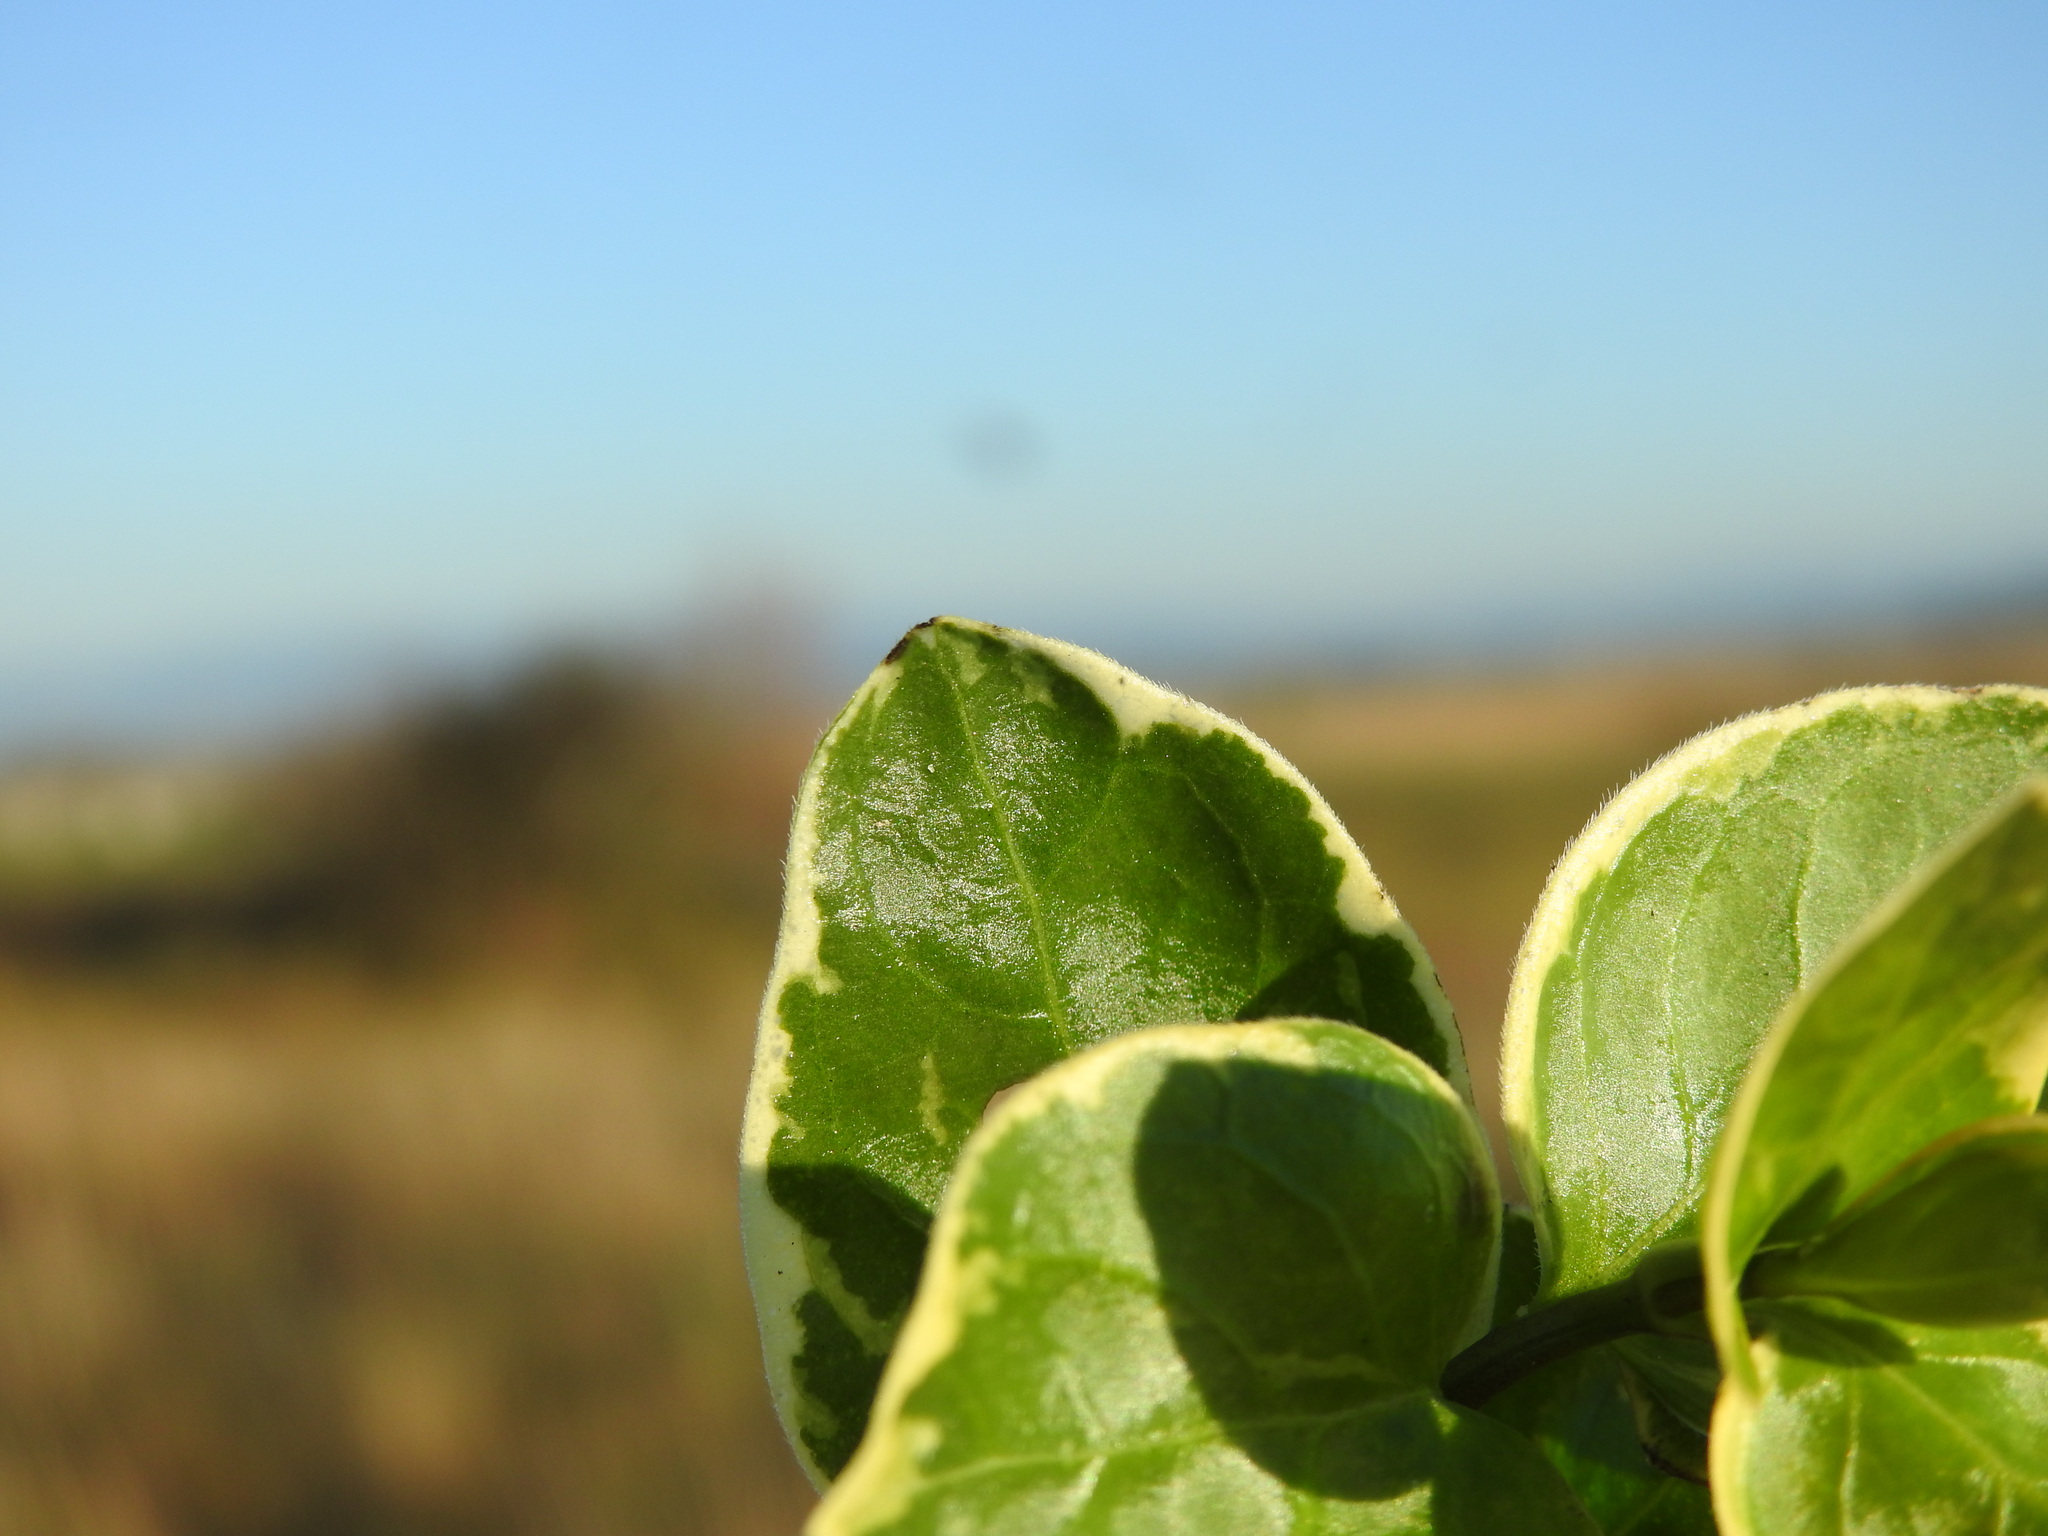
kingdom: Plantae
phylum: Tracheophyta
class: Magnoliopsida
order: Gentianales
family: Apocynaceae
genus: Vinca
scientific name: Vinca major
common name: Greater periwinkle
